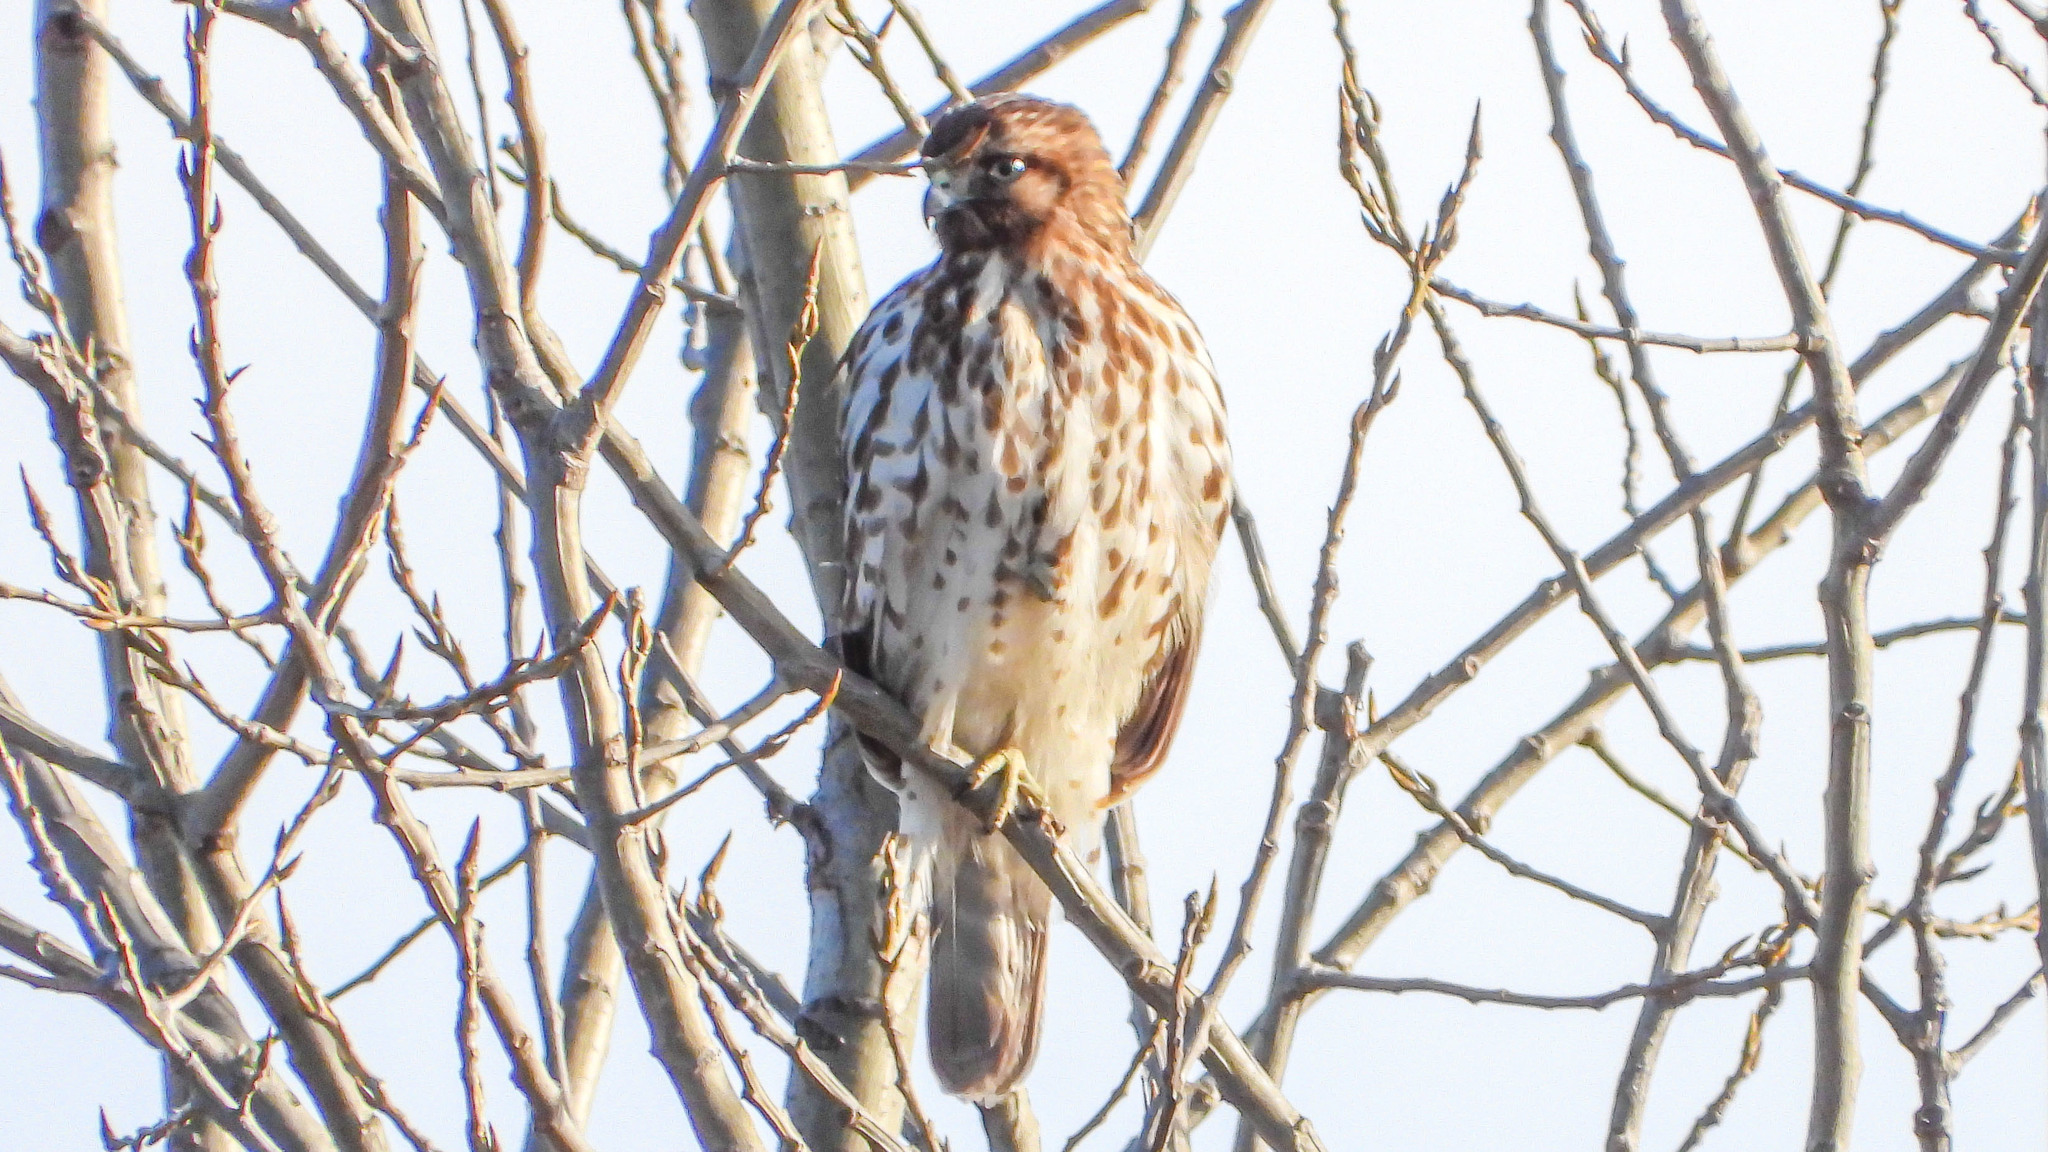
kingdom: Animalia
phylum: Chordata
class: Aves
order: Accipitriformes
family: Accipitridae
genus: Buteo
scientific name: Buteo lineatus
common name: Red-shouldered hawk
